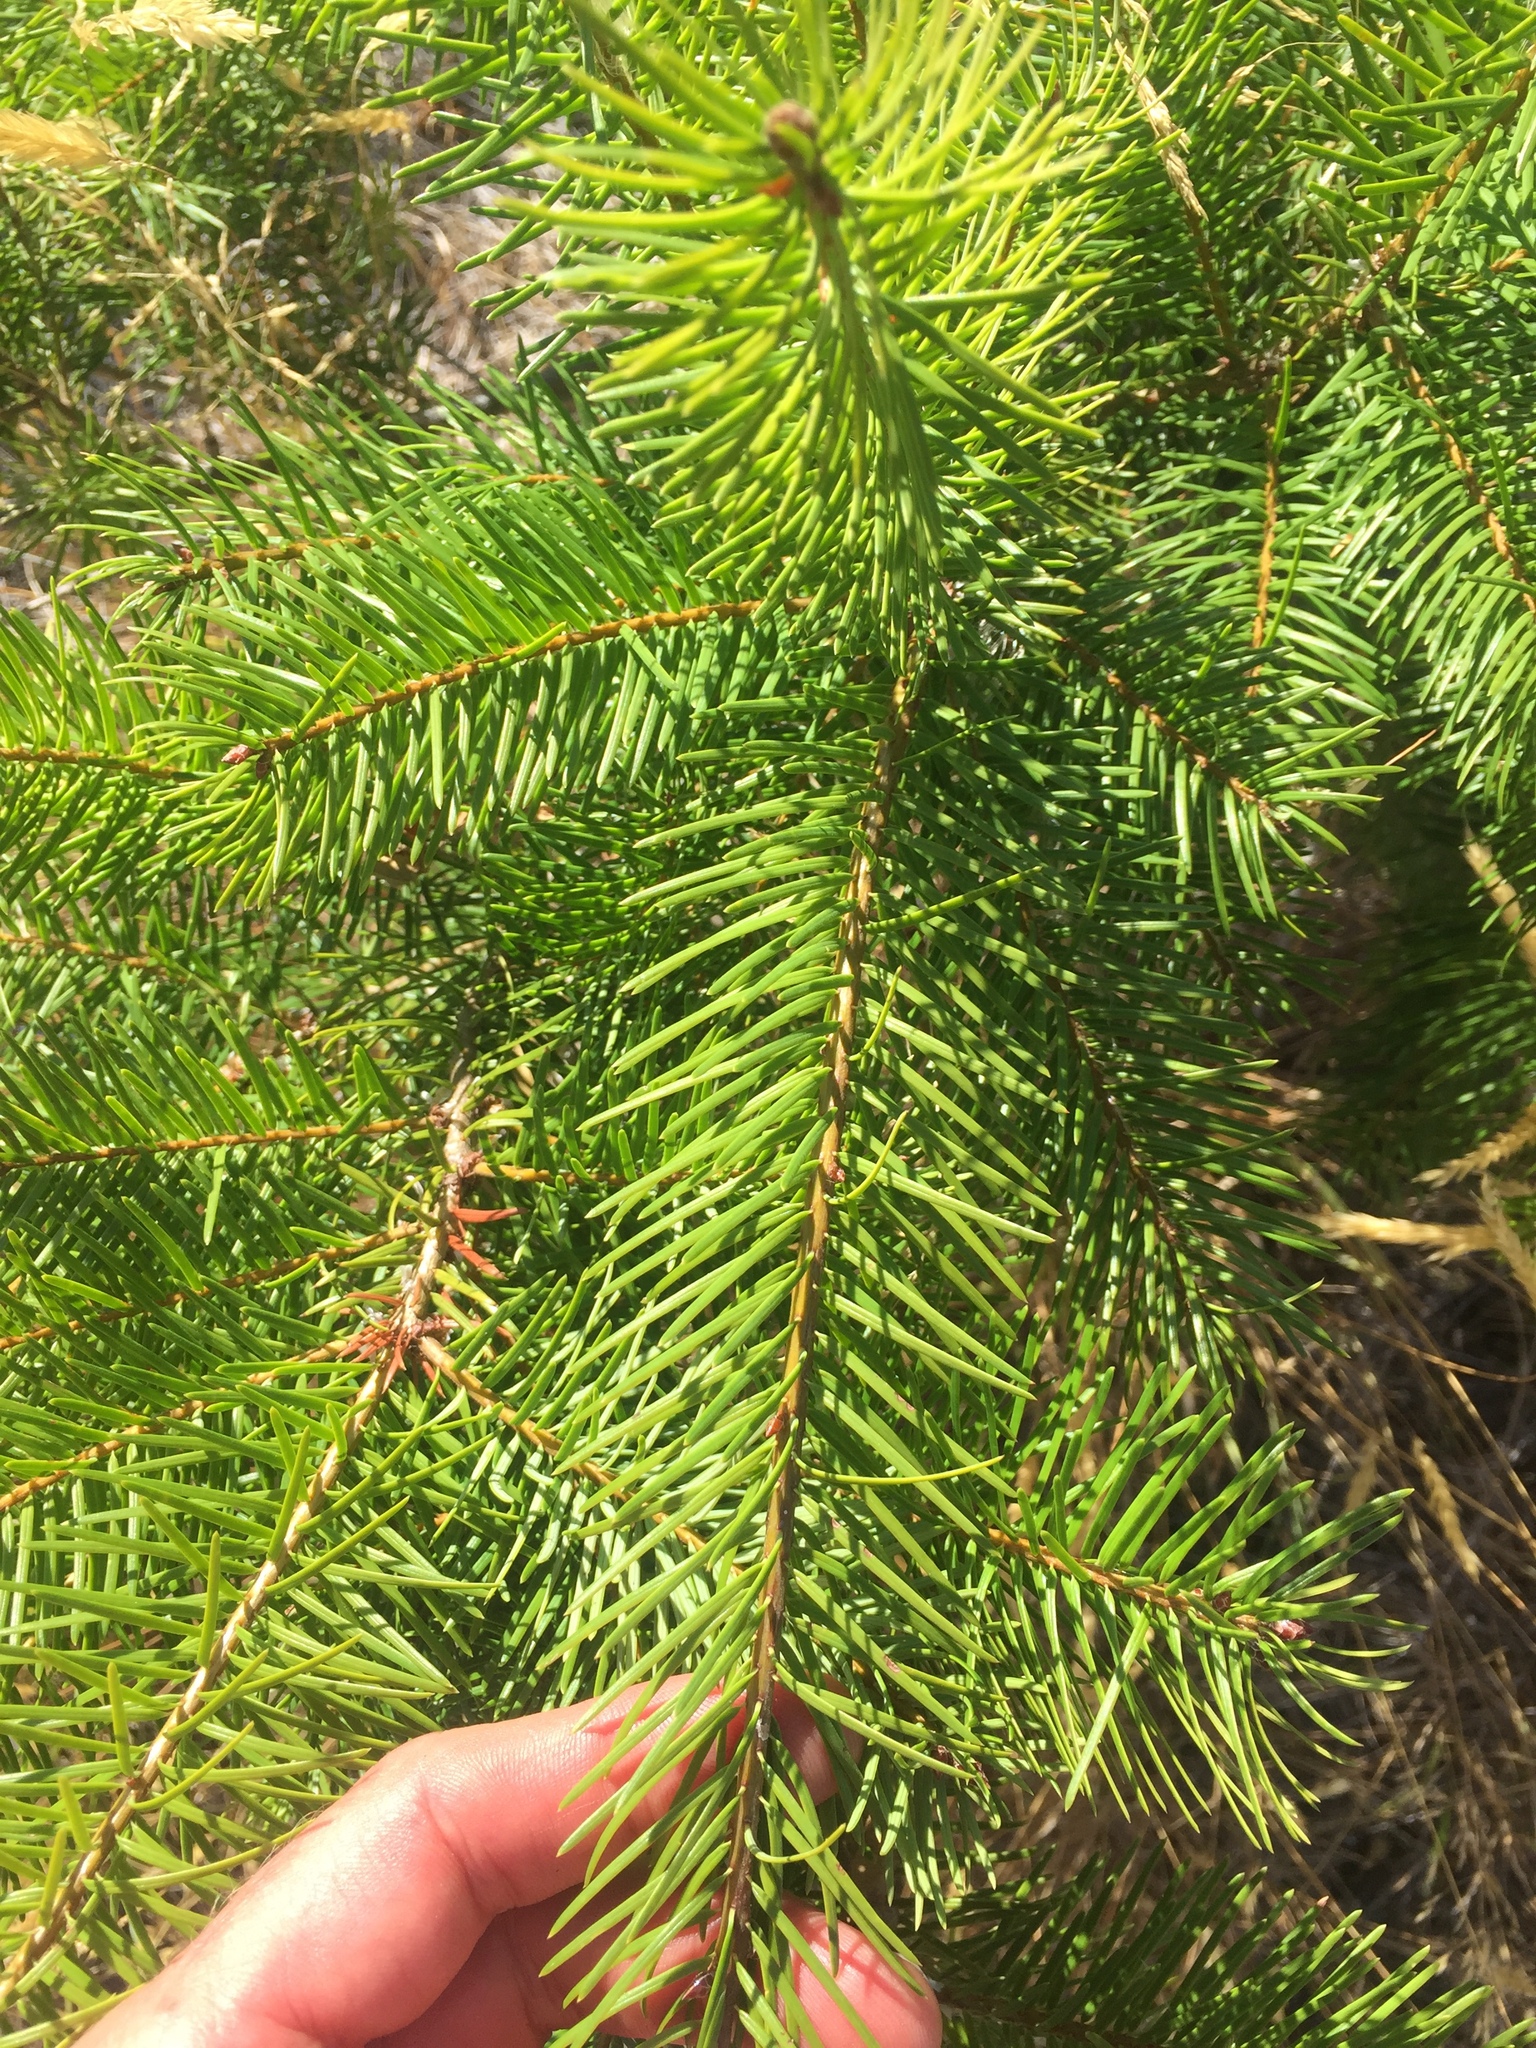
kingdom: Plantae
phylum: Tracheophyta
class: Pinopsida
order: Pinales
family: Pinaceae
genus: Pseudotsuga
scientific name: Pseudotsuga menziesii
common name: Douglas fir
